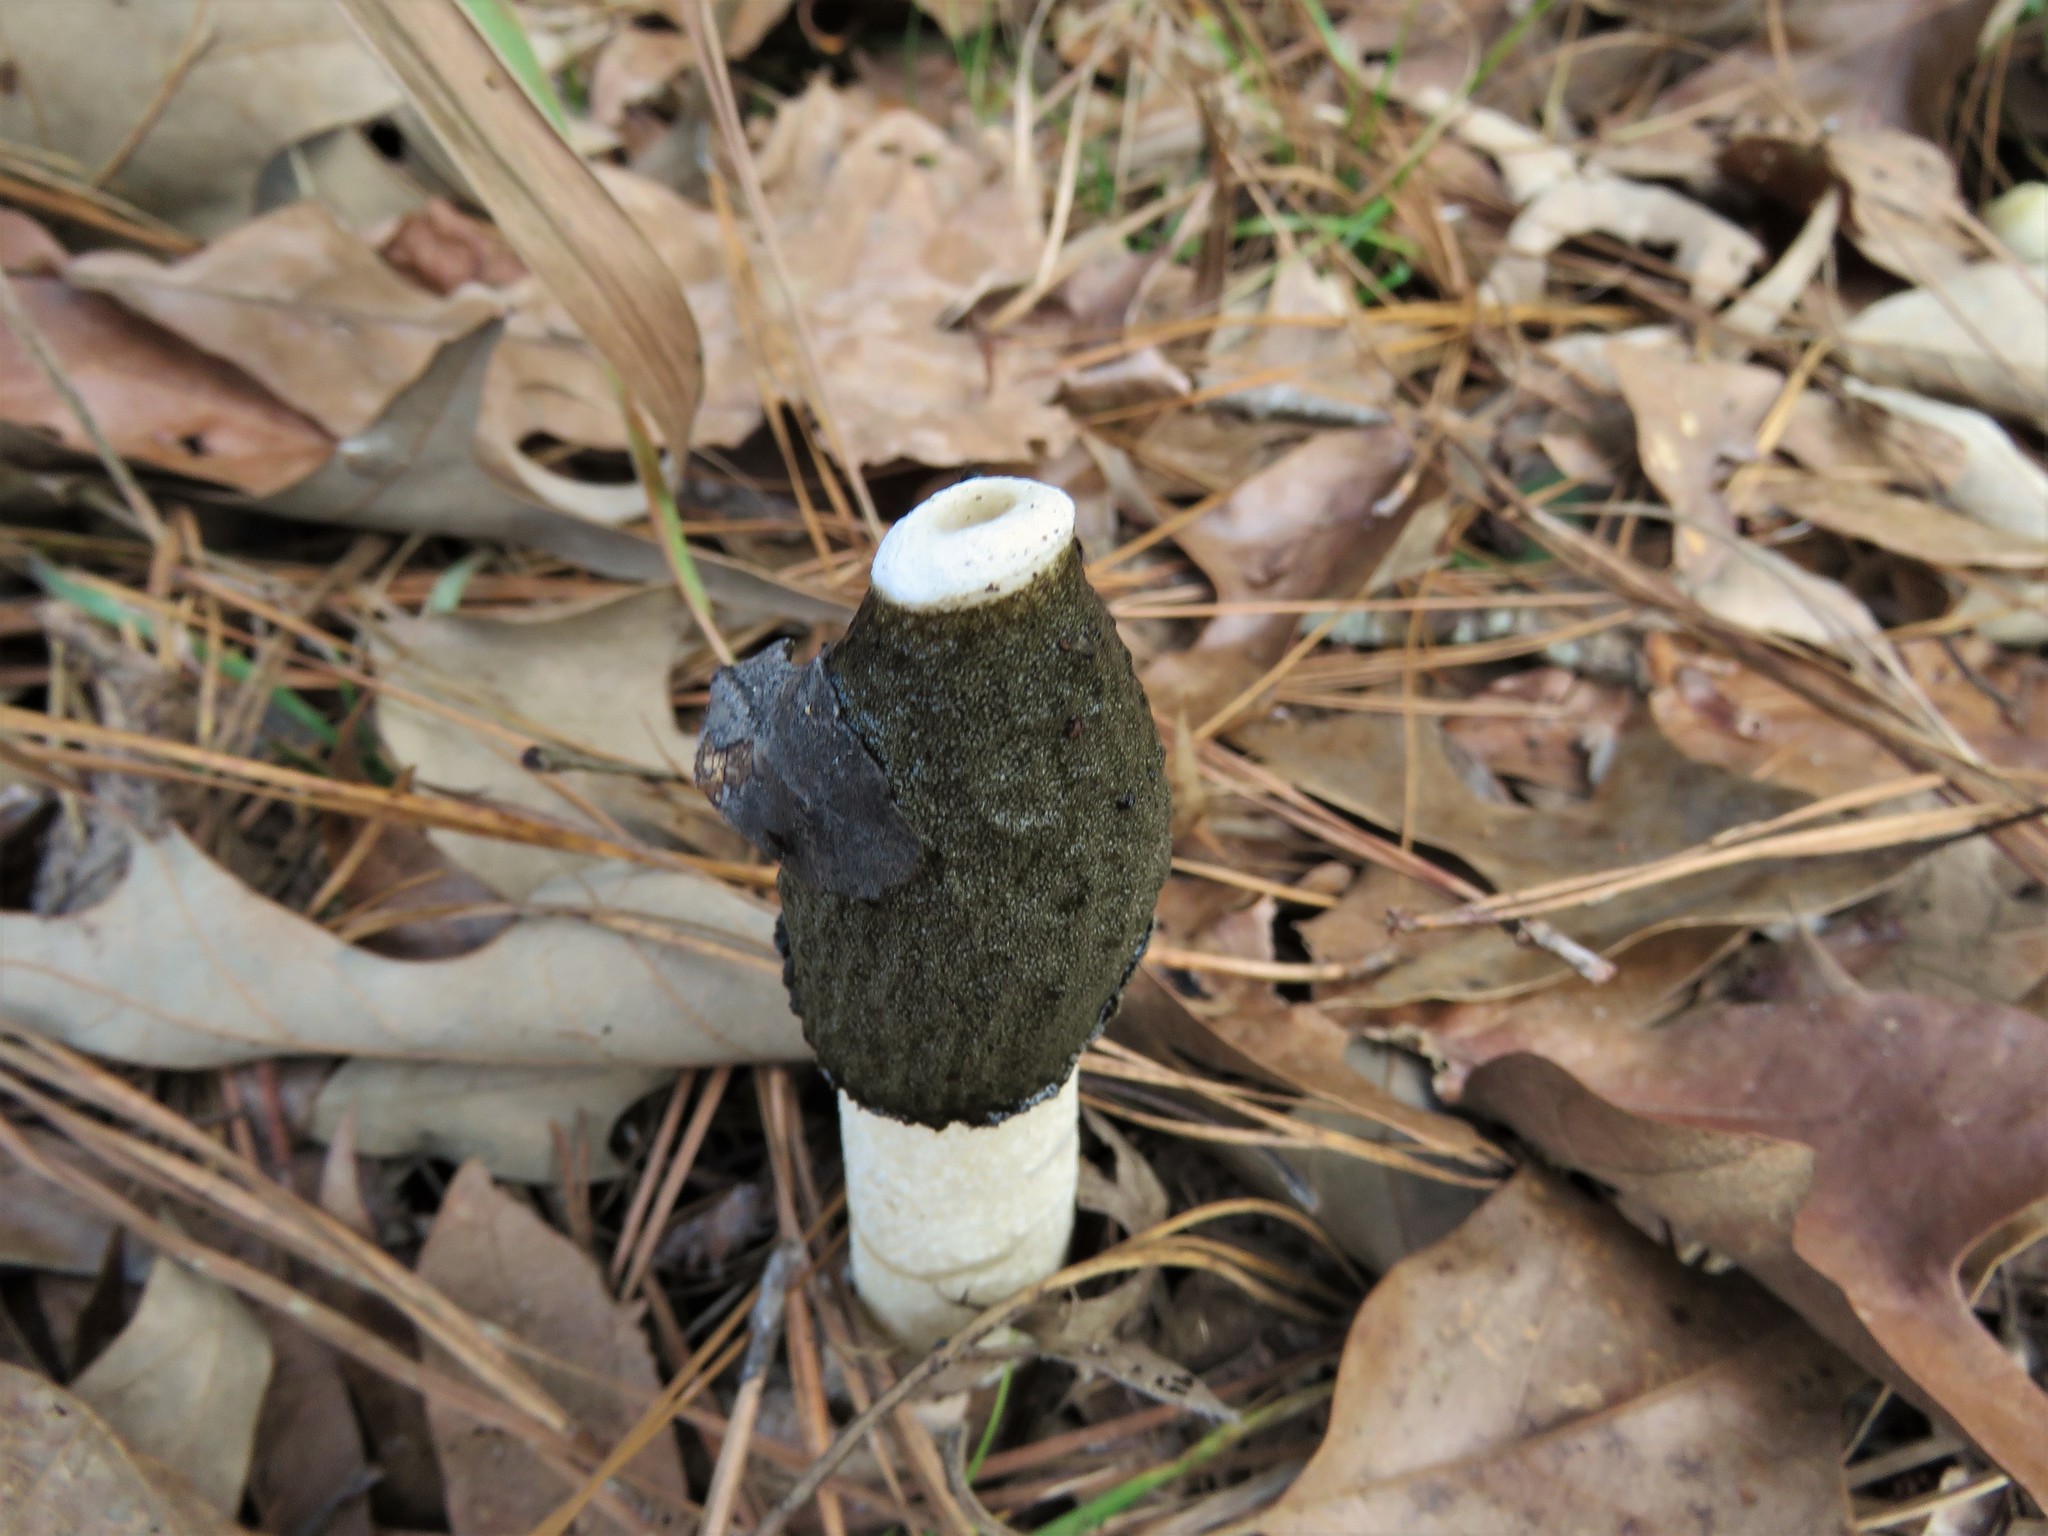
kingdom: Fungi
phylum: Basidiomycota
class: Agaricomycetes
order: Phallales
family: Phallaceae
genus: Phallus
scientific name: Phallus ravenelii
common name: Ravenel's stinkhorn
